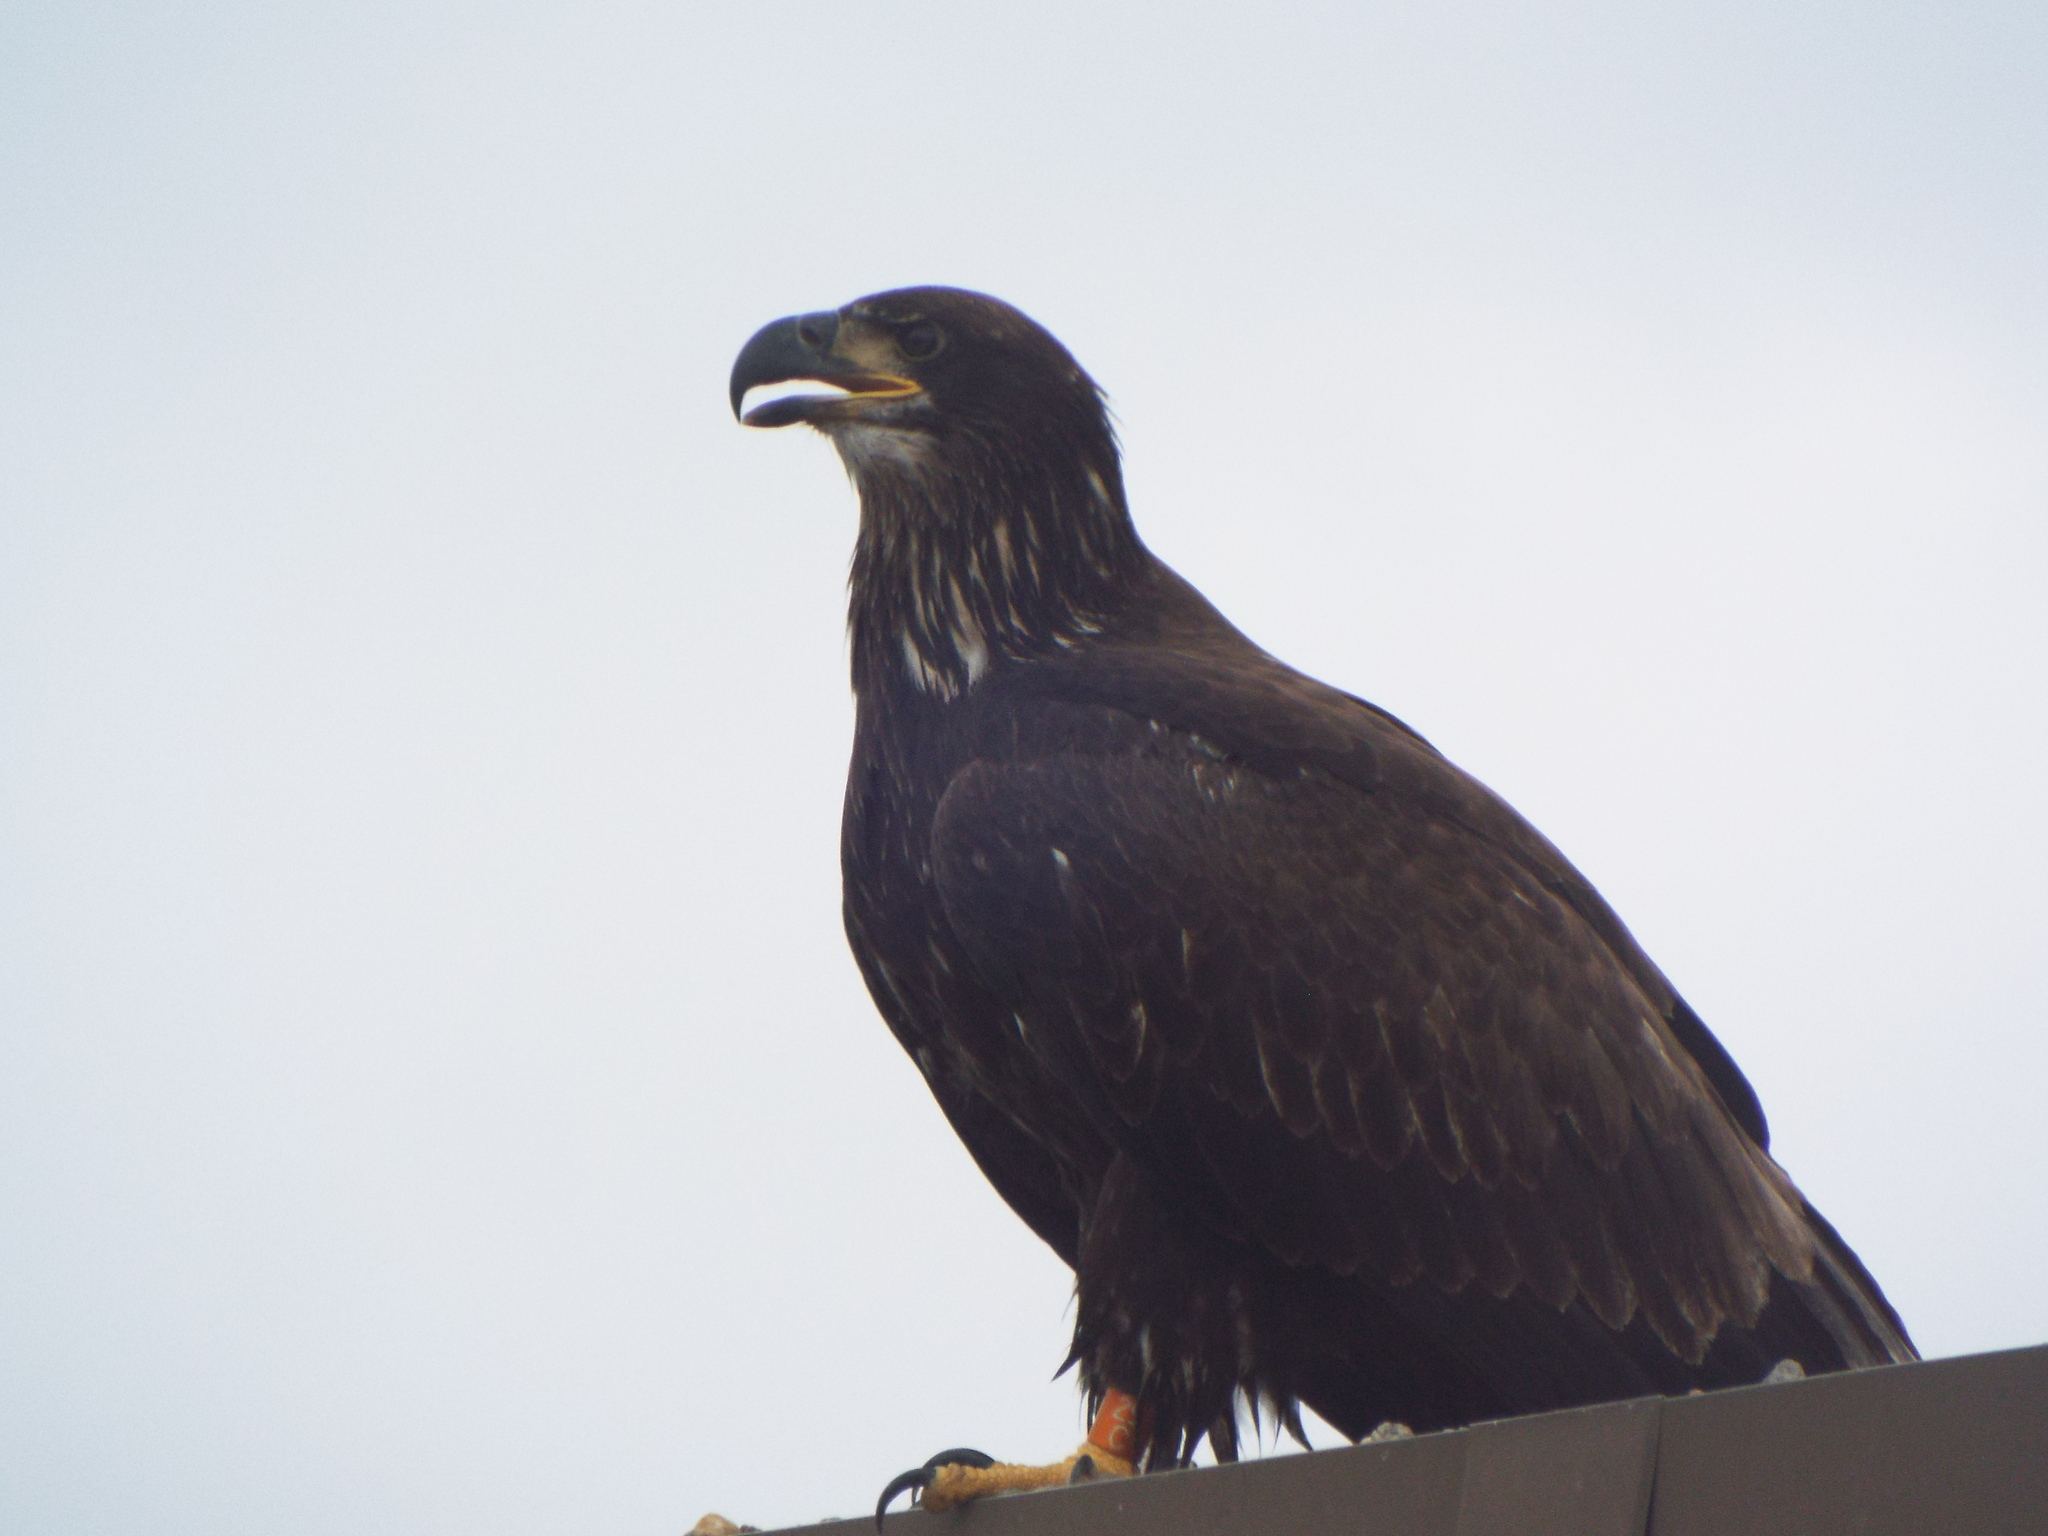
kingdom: Animalia
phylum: Chordata
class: Aves
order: Accipitriformes
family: Accipitridae
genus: Haliaeetus
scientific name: Haliaeetus leucocephalus
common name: Bald eagle
